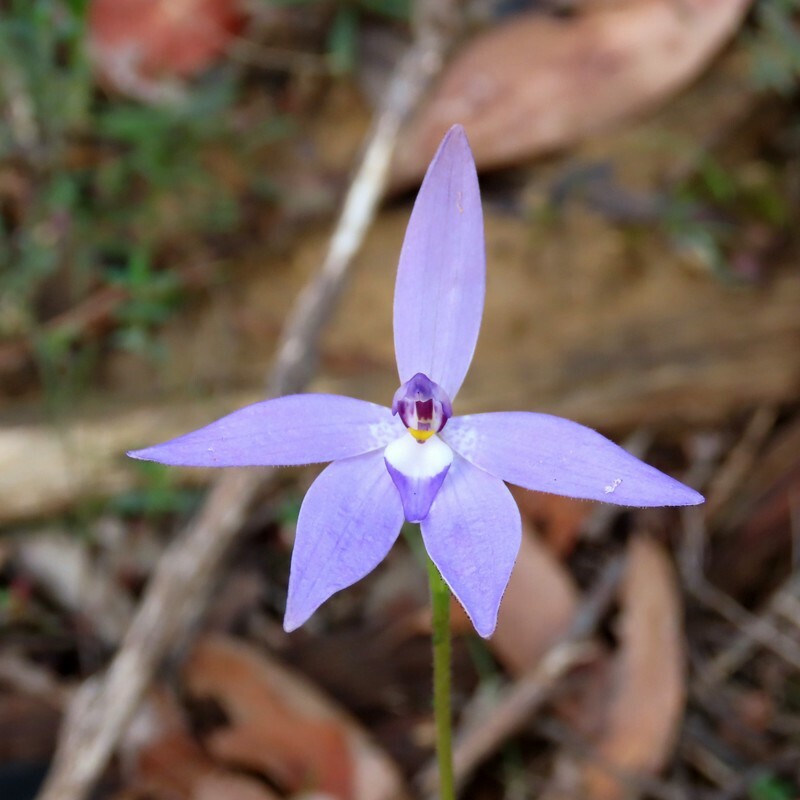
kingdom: Plantae
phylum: Tracheophyta
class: Liliopsida
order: Asparagales
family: Orchidaceae
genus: Caladenia
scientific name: Caladenia major
